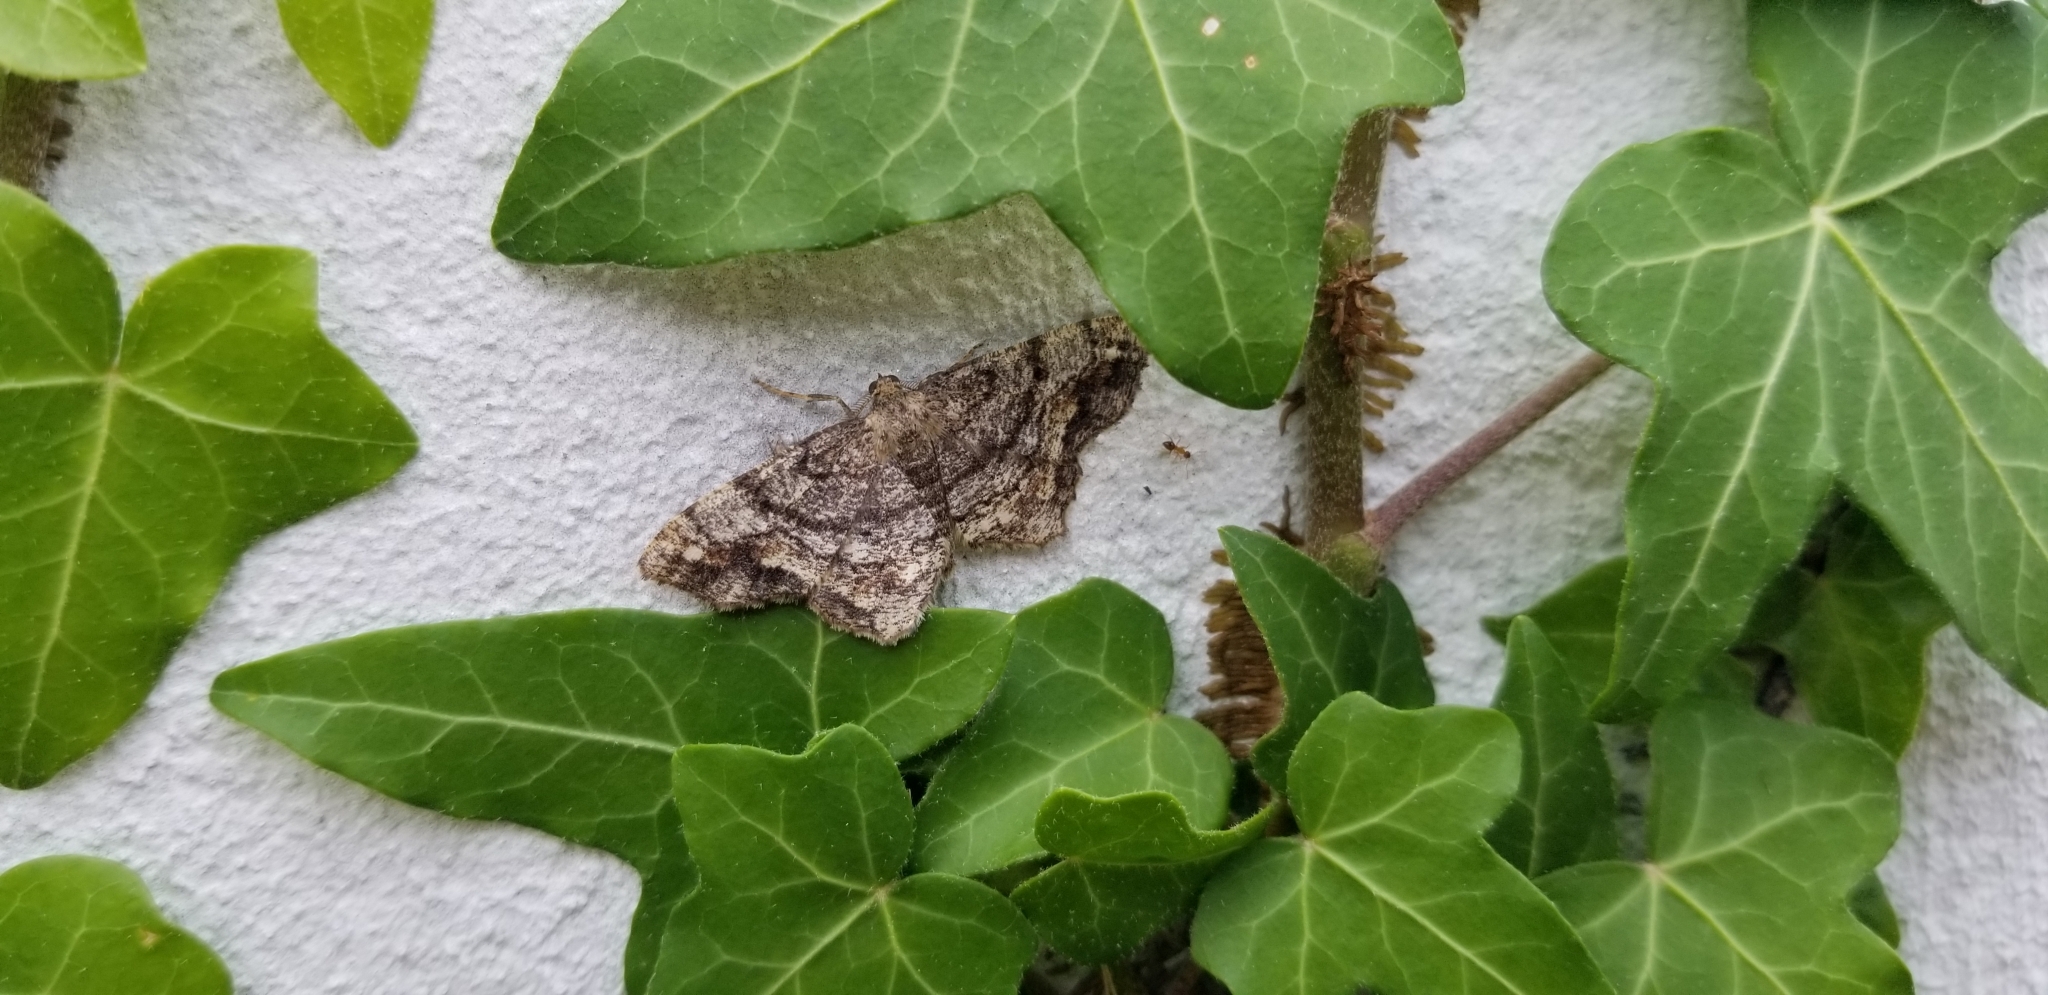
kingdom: Animalia
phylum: Arthropoda
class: Insecta
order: Lepidoptera
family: Geometridae
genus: Hypagyrtis
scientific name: Hypagyrtis unipunctata
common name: One-spotted variant
